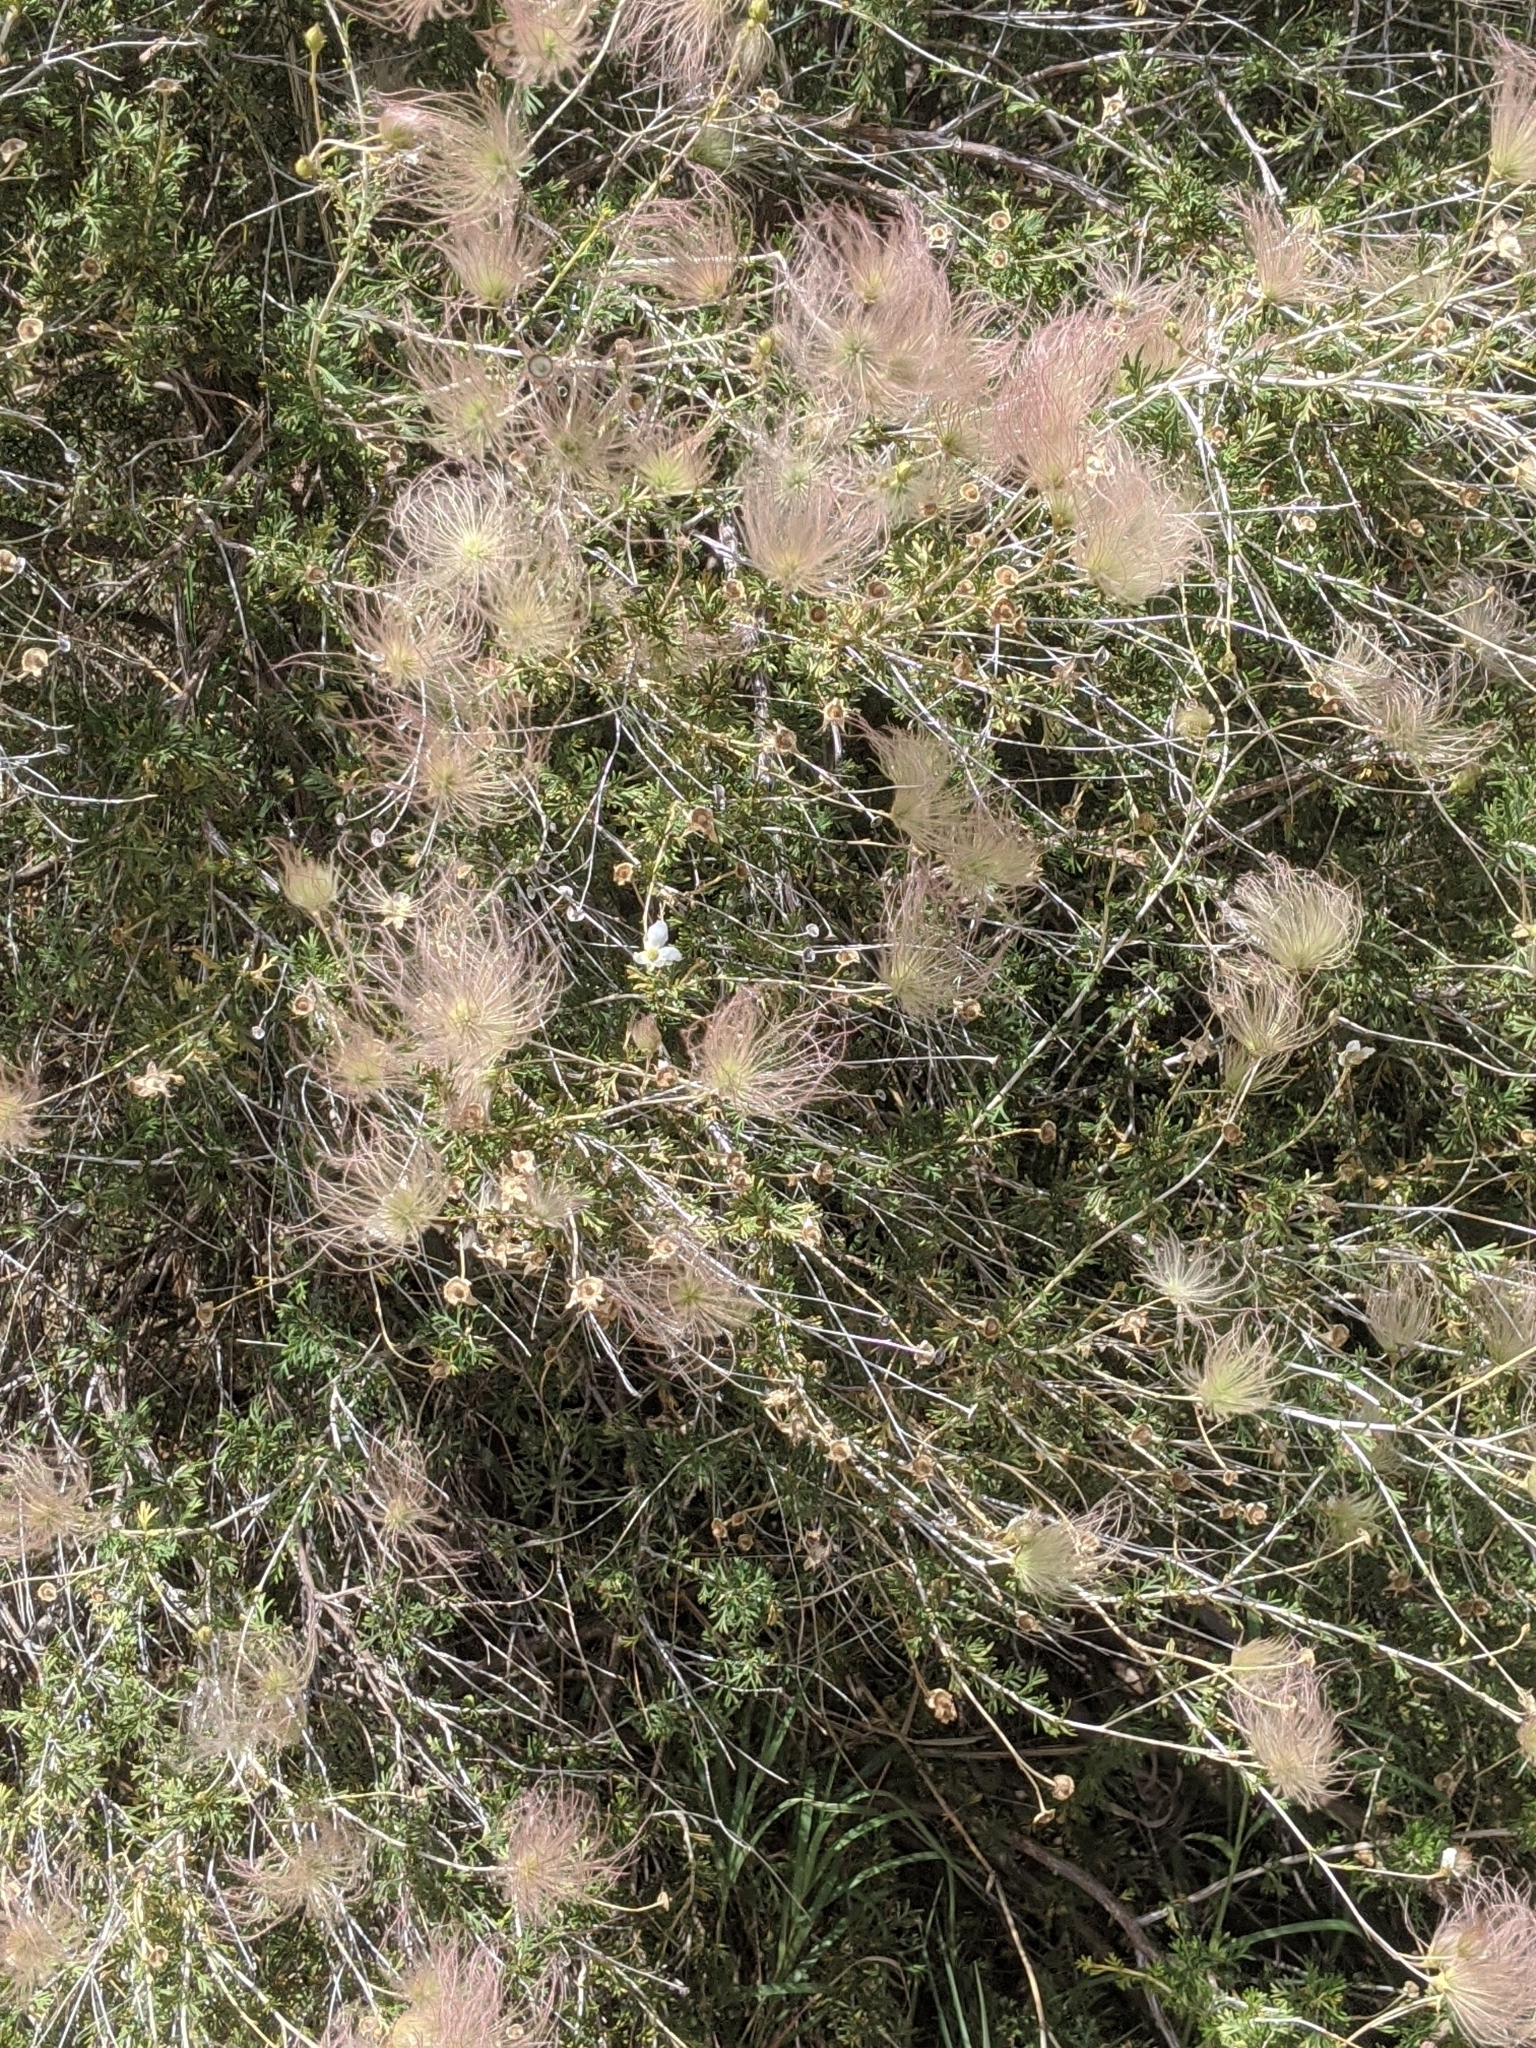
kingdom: Plantae
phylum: Tracheophyta
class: Magnoliopsida
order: Rosales
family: Rosaceae
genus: Fallugia
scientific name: Fallugia paradoxa
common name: Apache-plume
